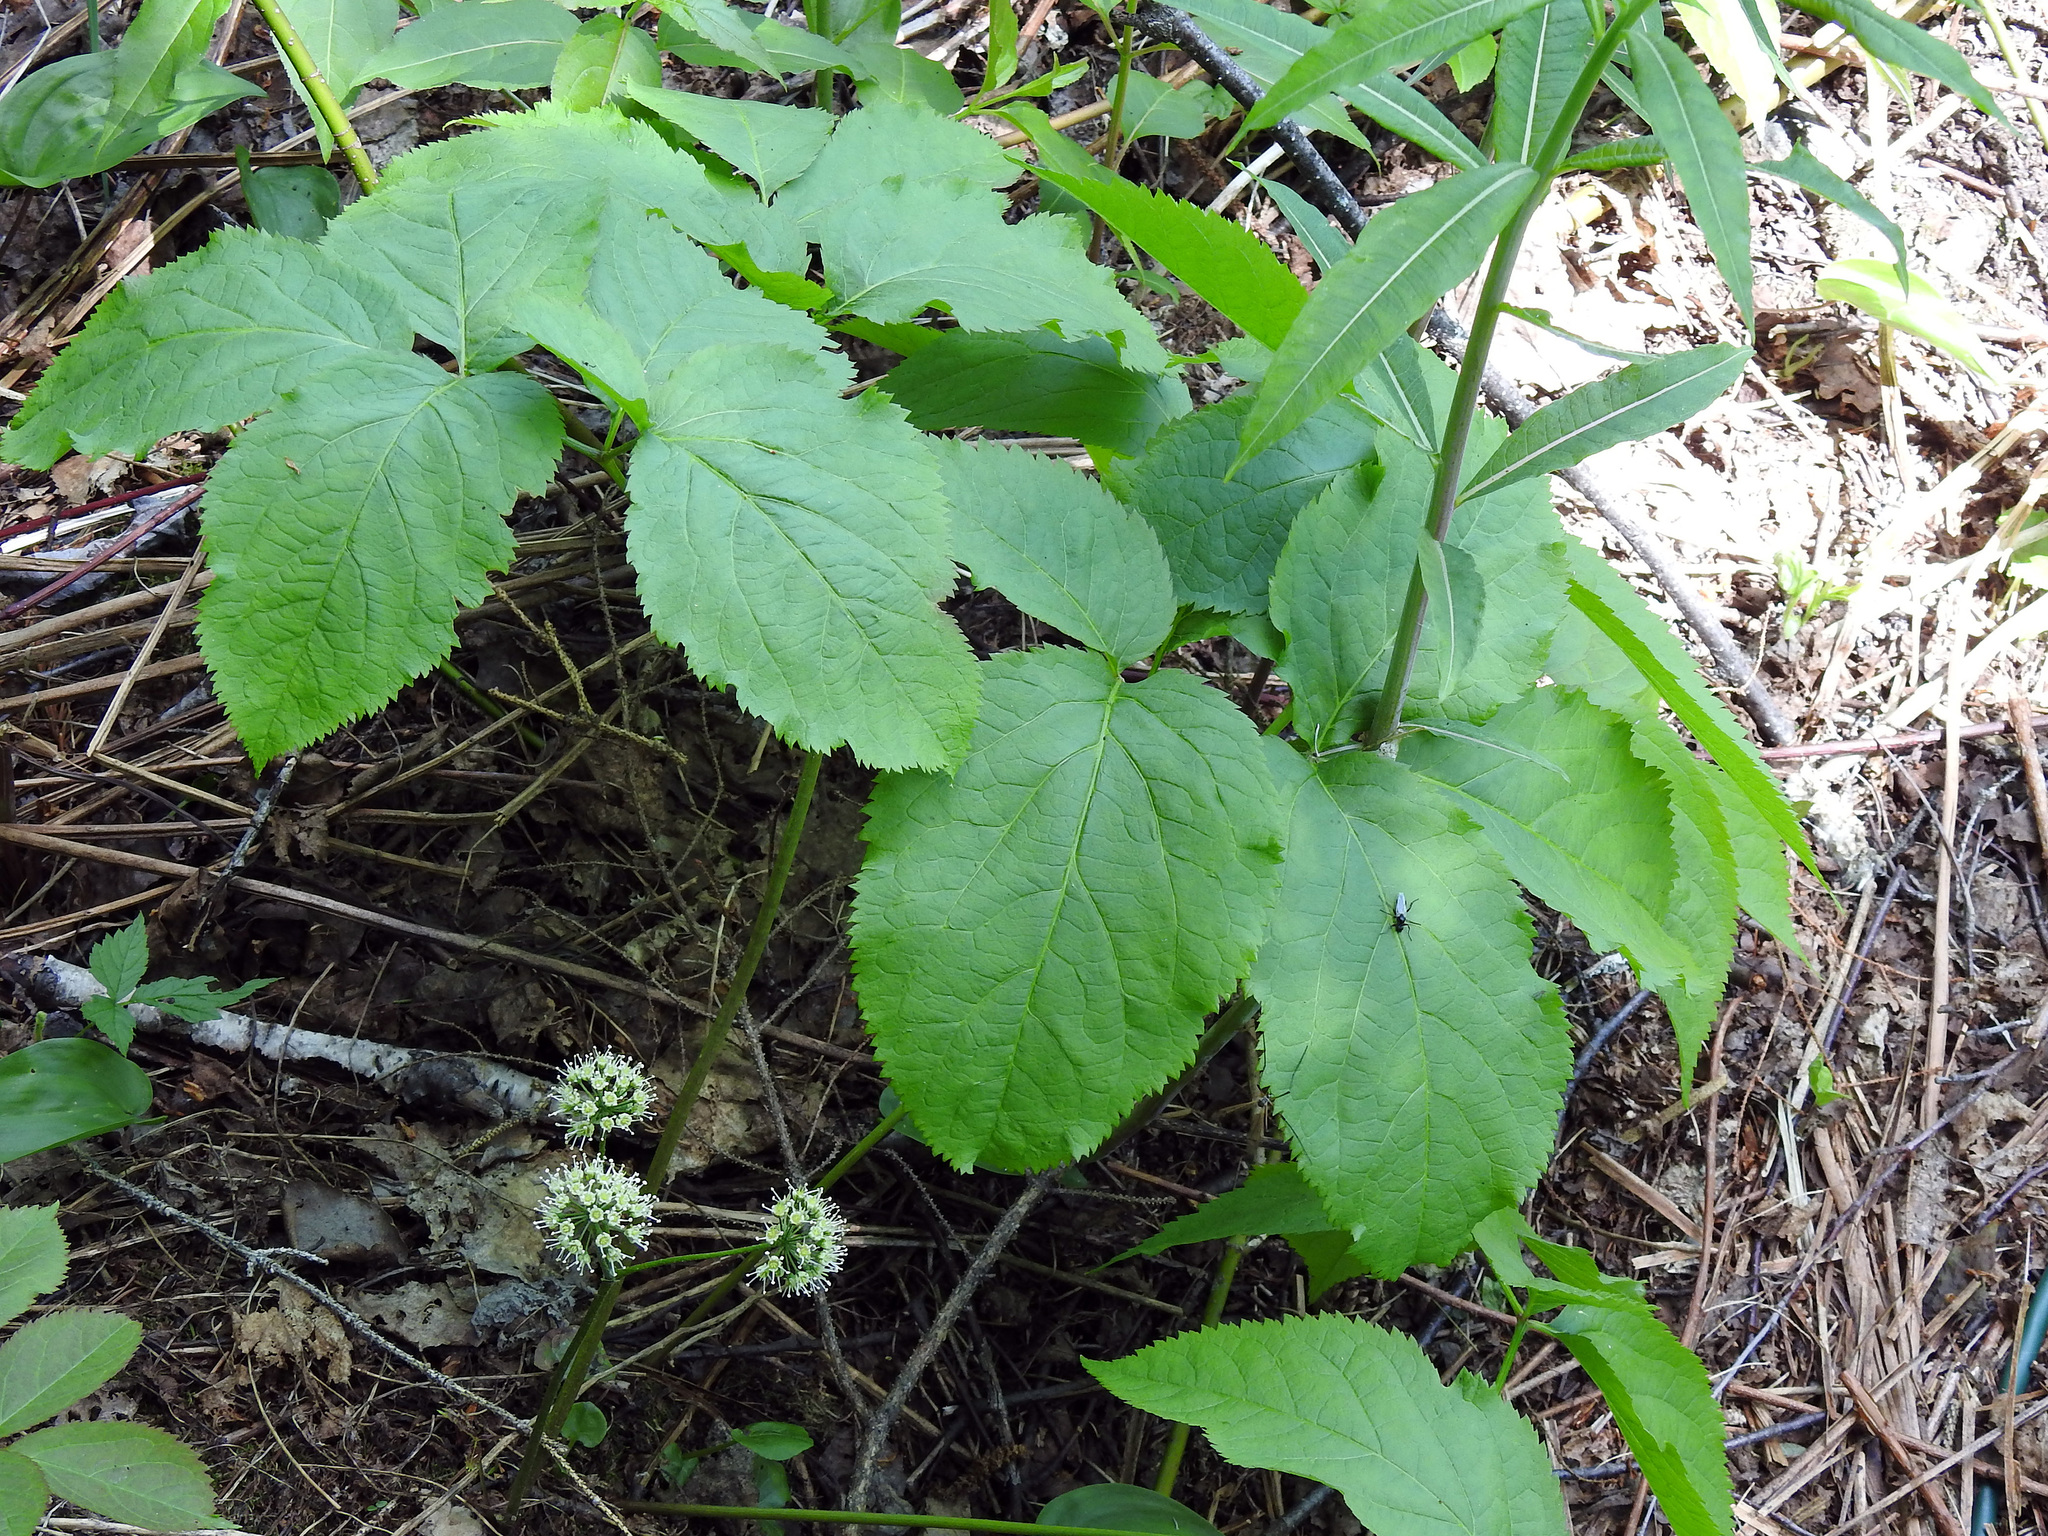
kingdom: Plantae
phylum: Tracheophyta
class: Magnoliopsida
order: Apiales
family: Araliaceae
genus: Aralia
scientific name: Aralia nudicaulis
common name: Wild sarsaparilla
